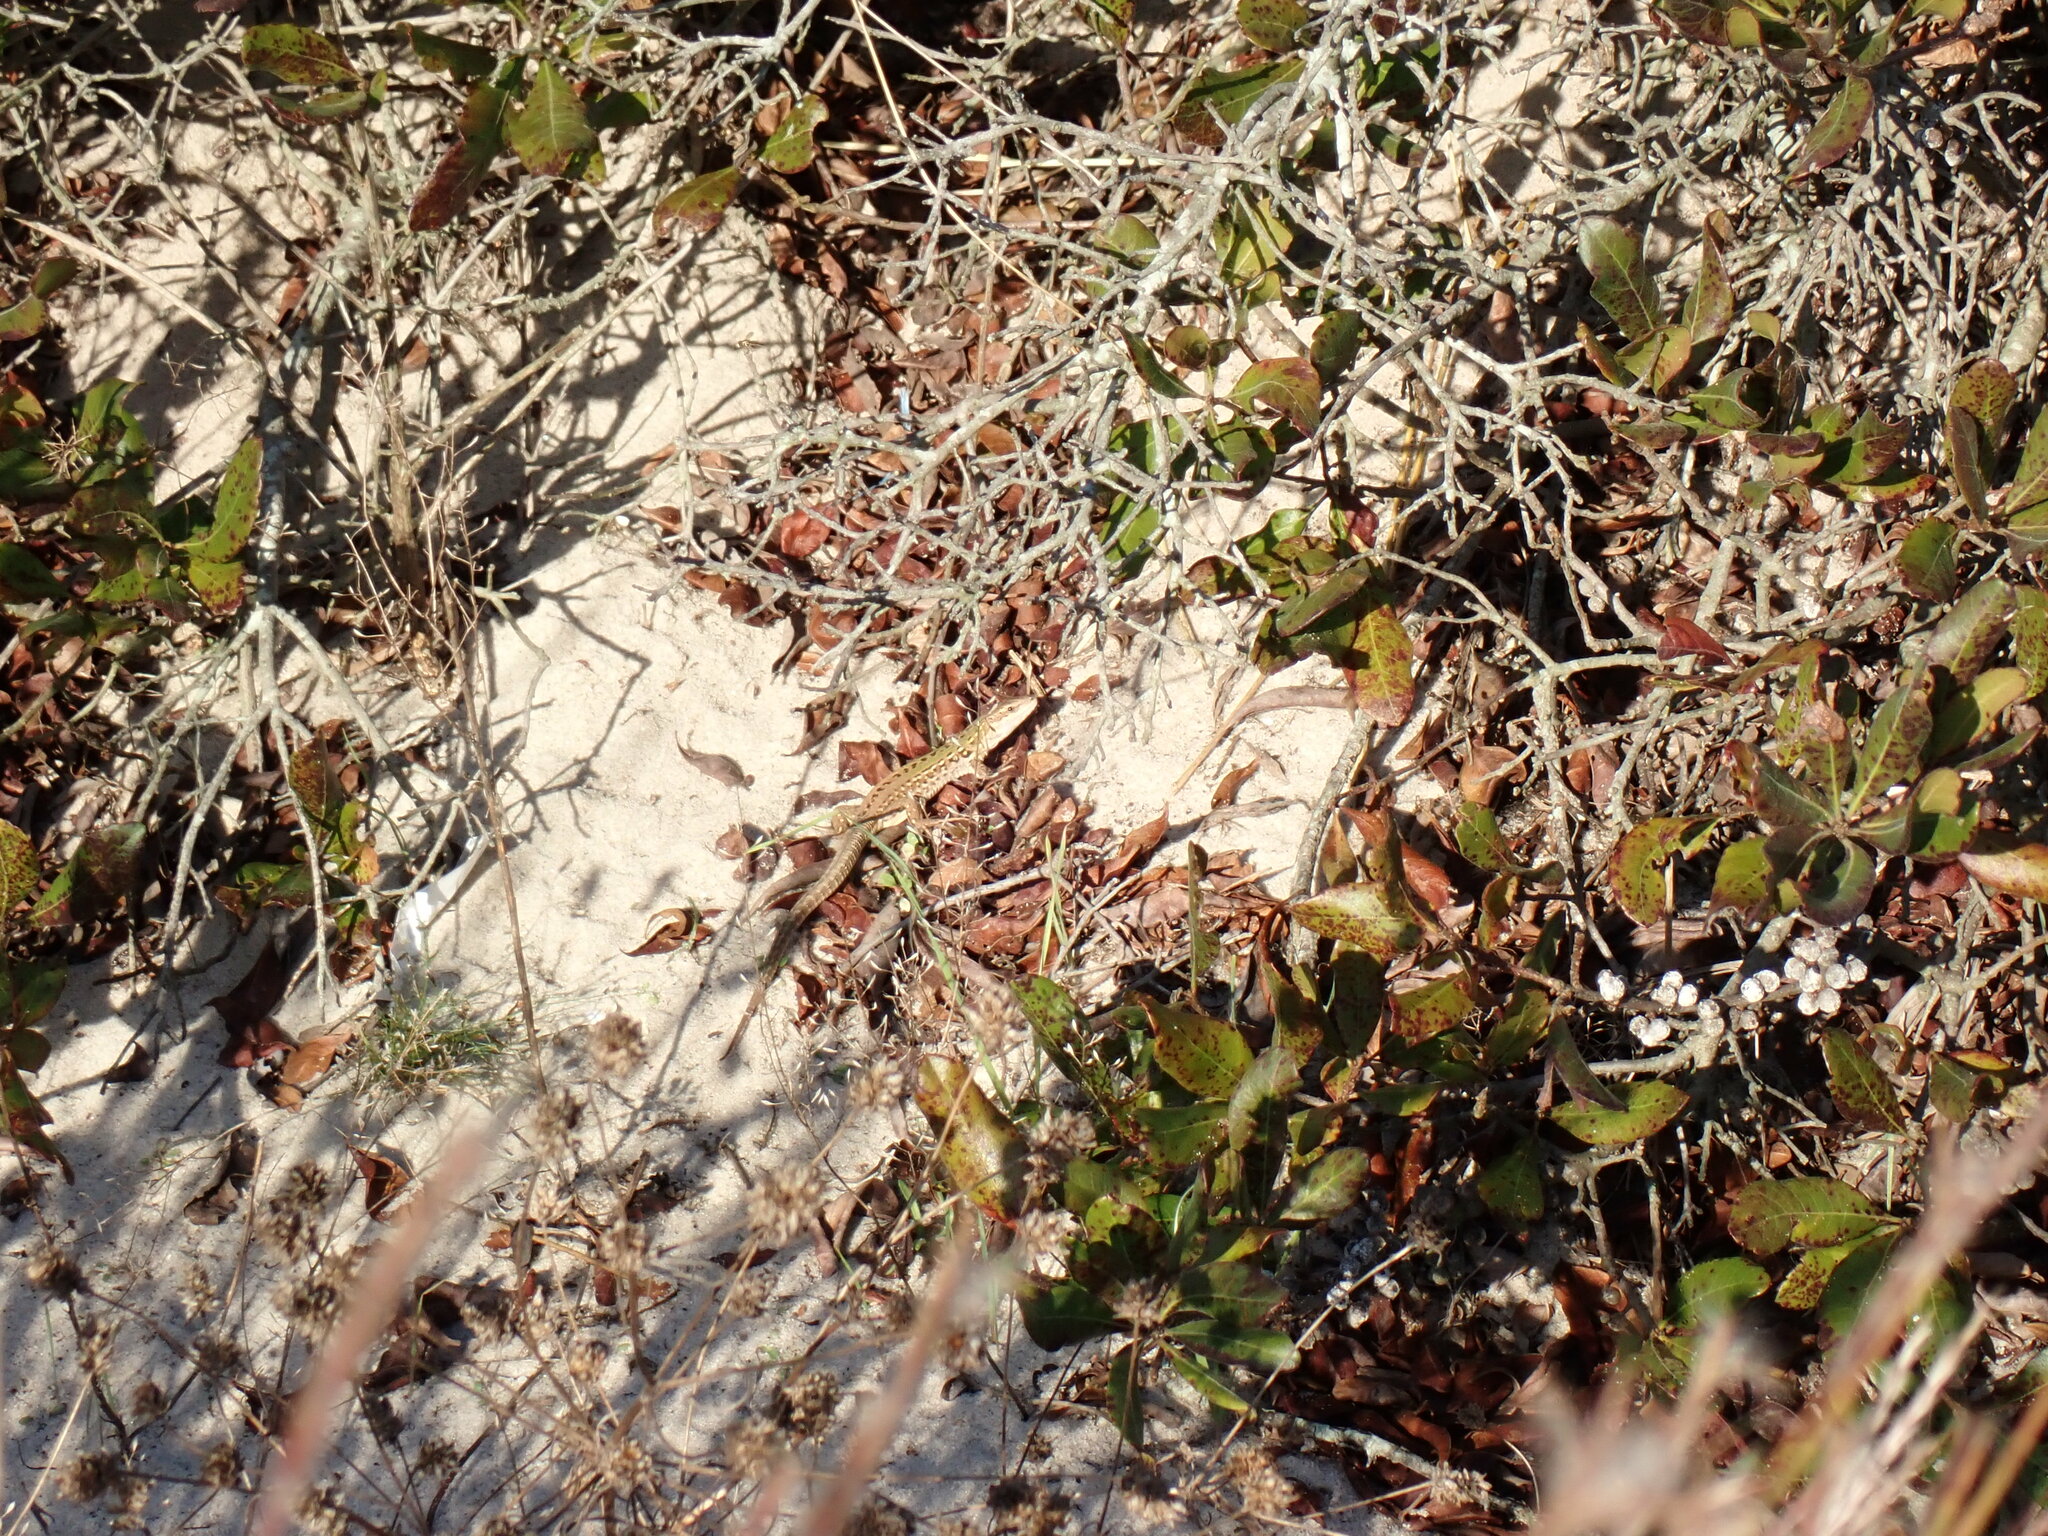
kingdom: Animalia
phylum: Chordata
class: Squamata
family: Lacertidae
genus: Podarcis
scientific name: Podarcis siculus
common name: Italian wall lizard
